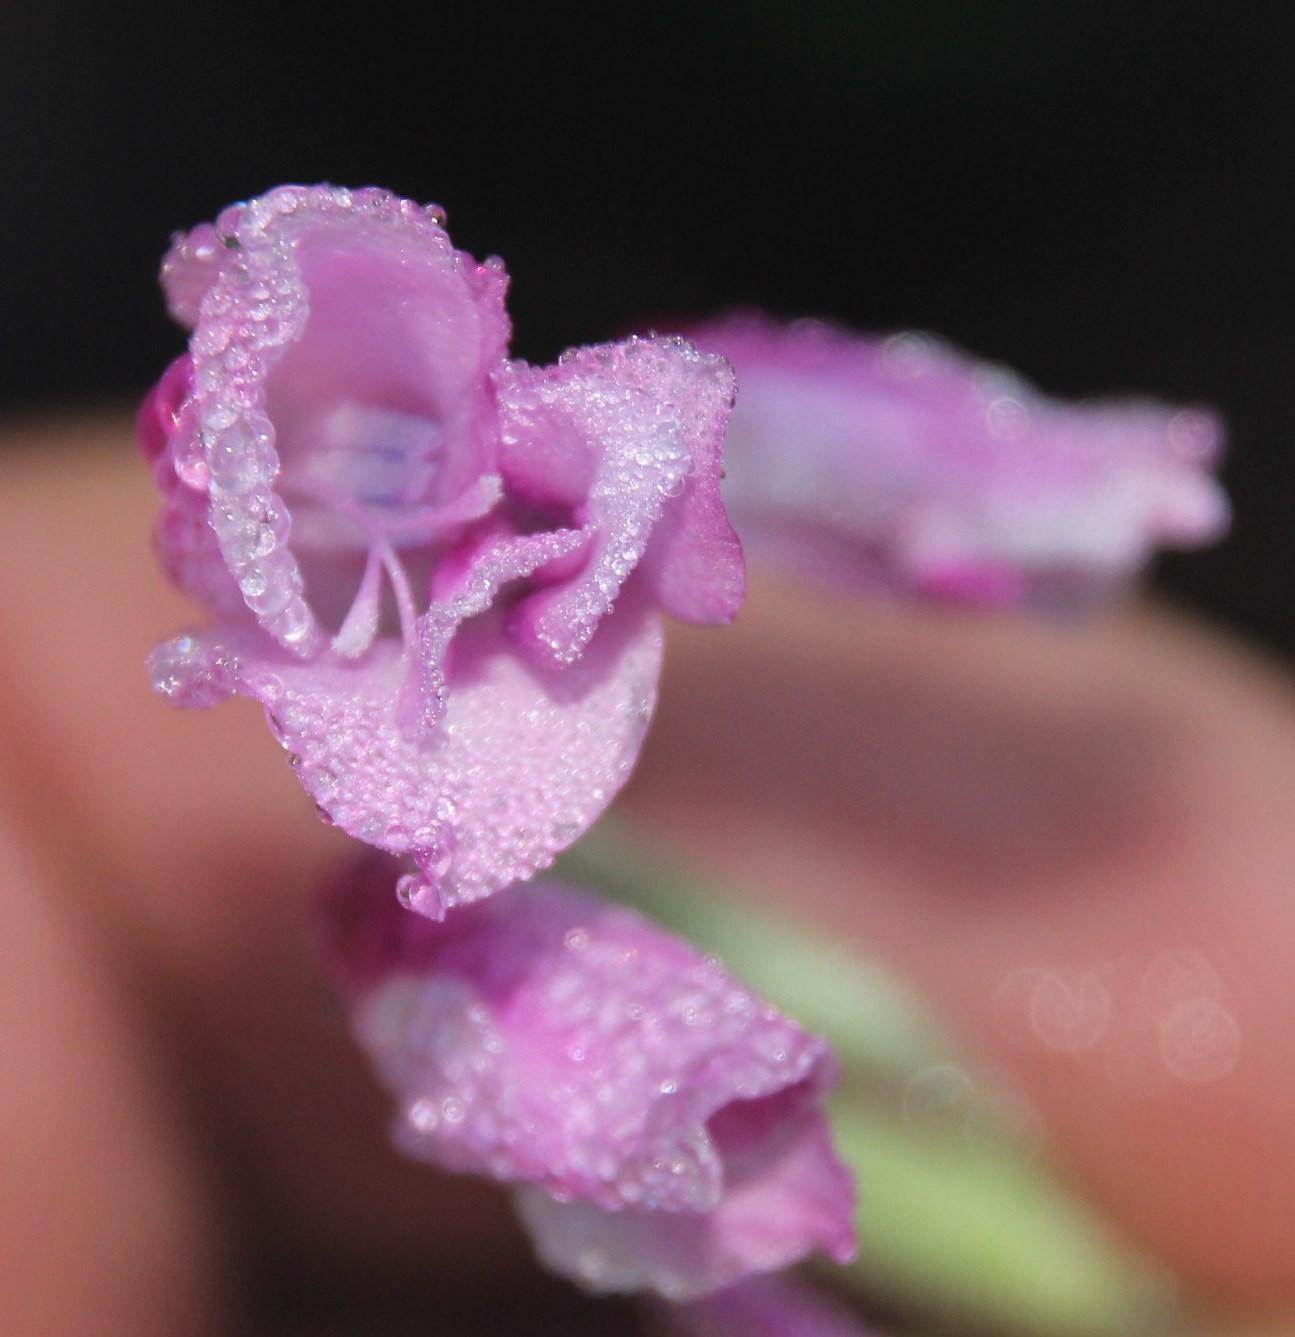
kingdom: Plantae
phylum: Tracheophyta
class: Liliopsida
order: Asparagales
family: Iridaceae
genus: Gladiolus
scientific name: Gladiolus hirsutus
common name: Small pink afrikaner
